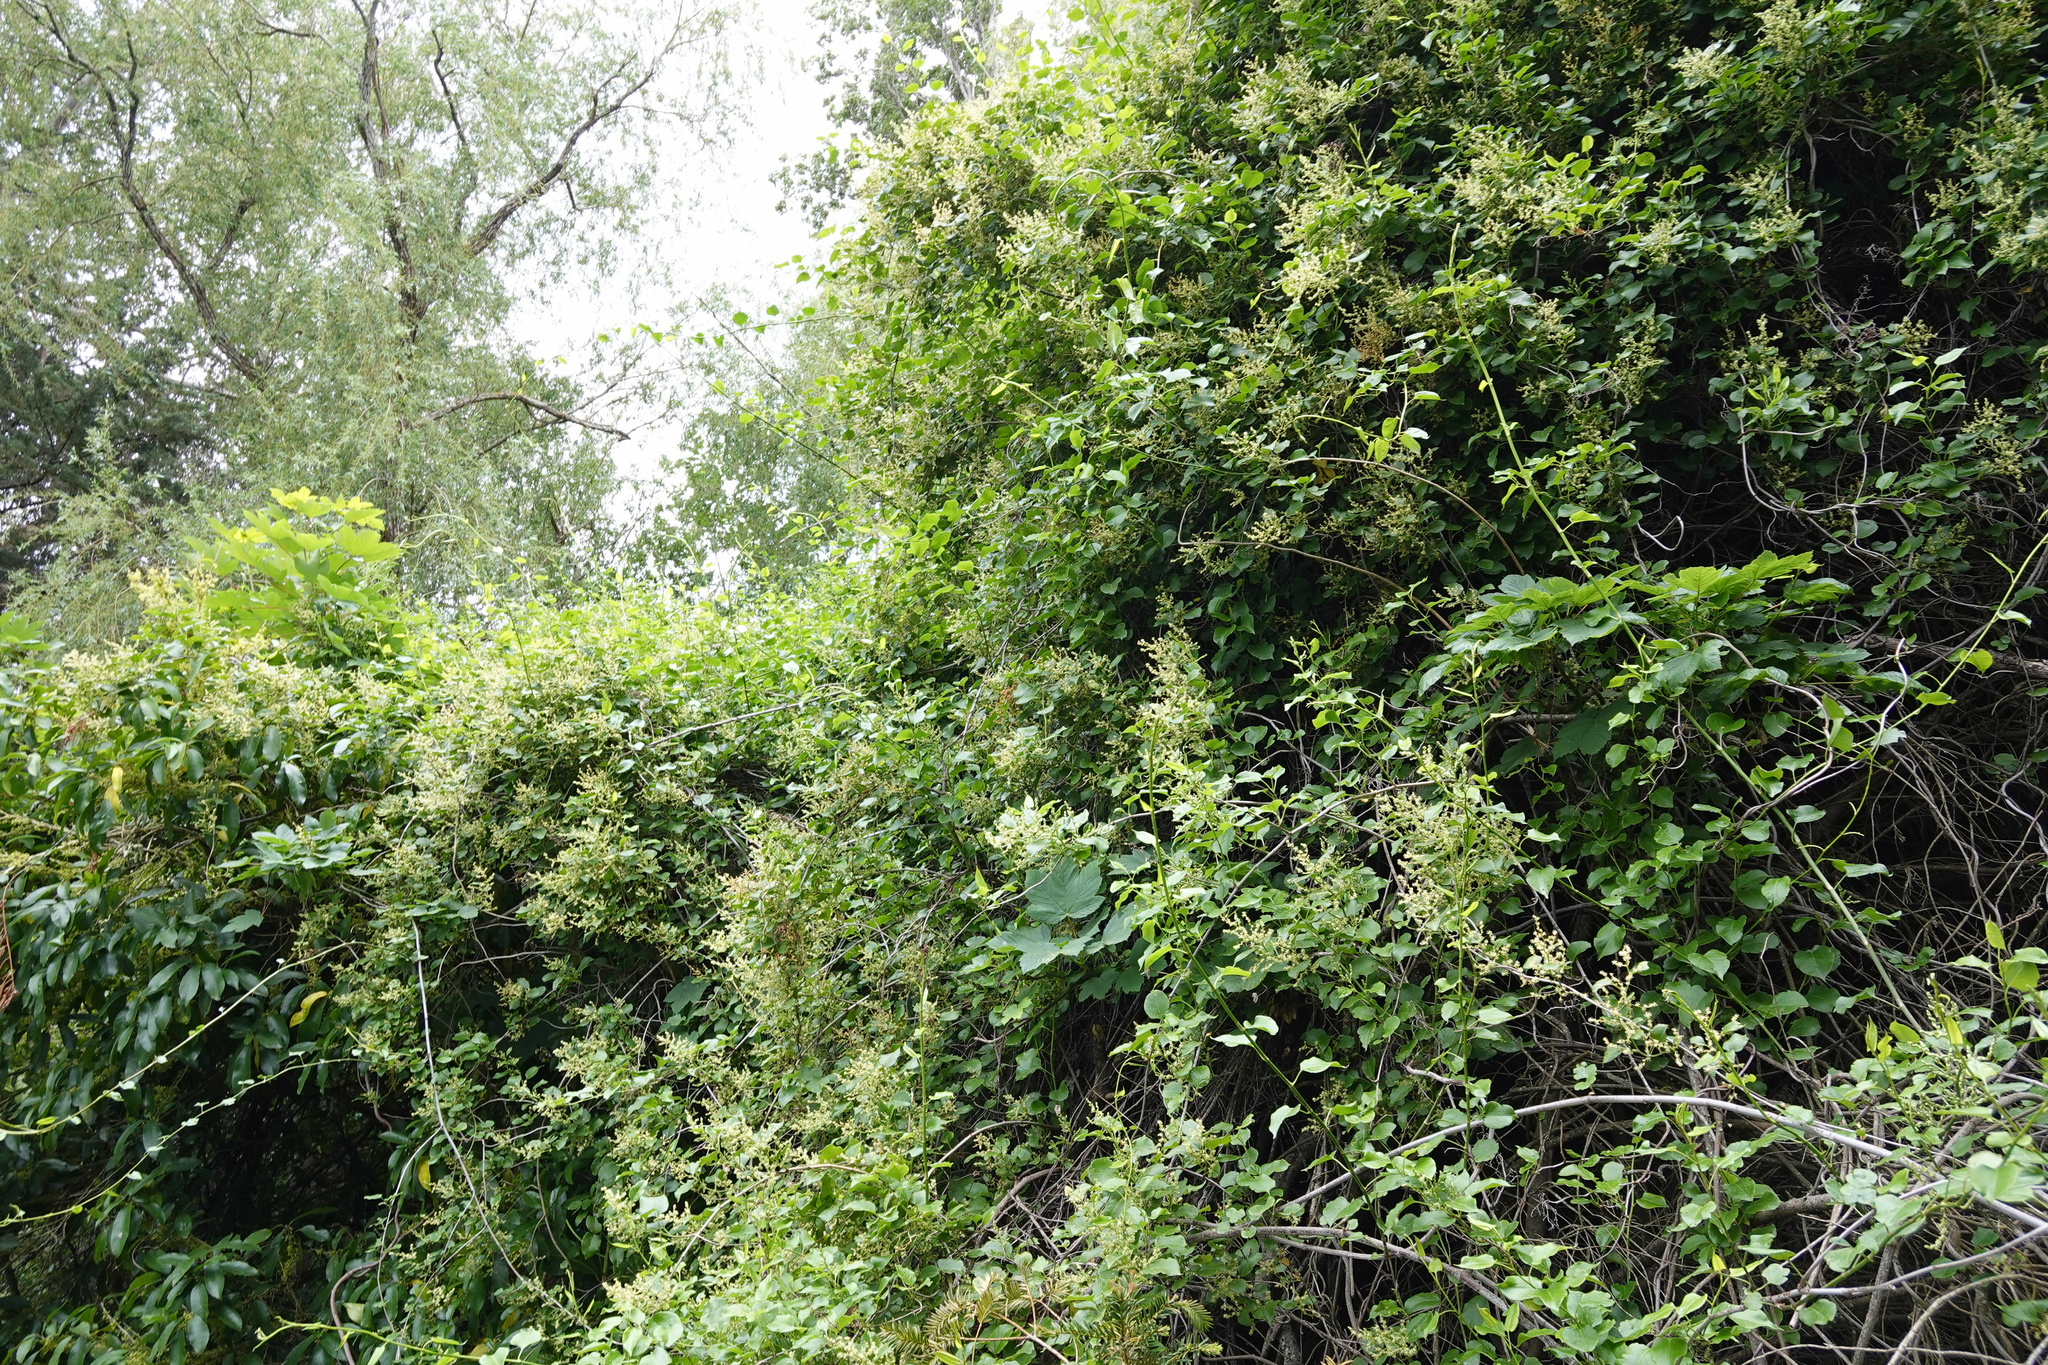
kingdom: Plantae
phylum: Tracheophyta
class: Magnoliopsida
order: Caryophyllales
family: Polygonaceae
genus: Muehlenbeckia
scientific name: Muehlenbeckia australis
